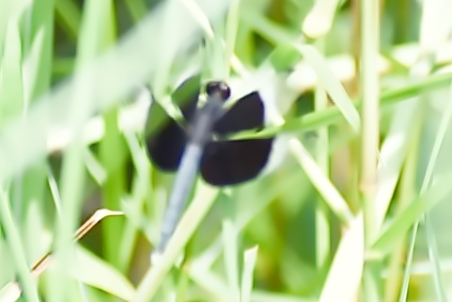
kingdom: Animalia
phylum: Arthropoda
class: Insecta
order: Odonata
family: Libellulidae
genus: Neurothemis
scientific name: Neurothemis tullia
